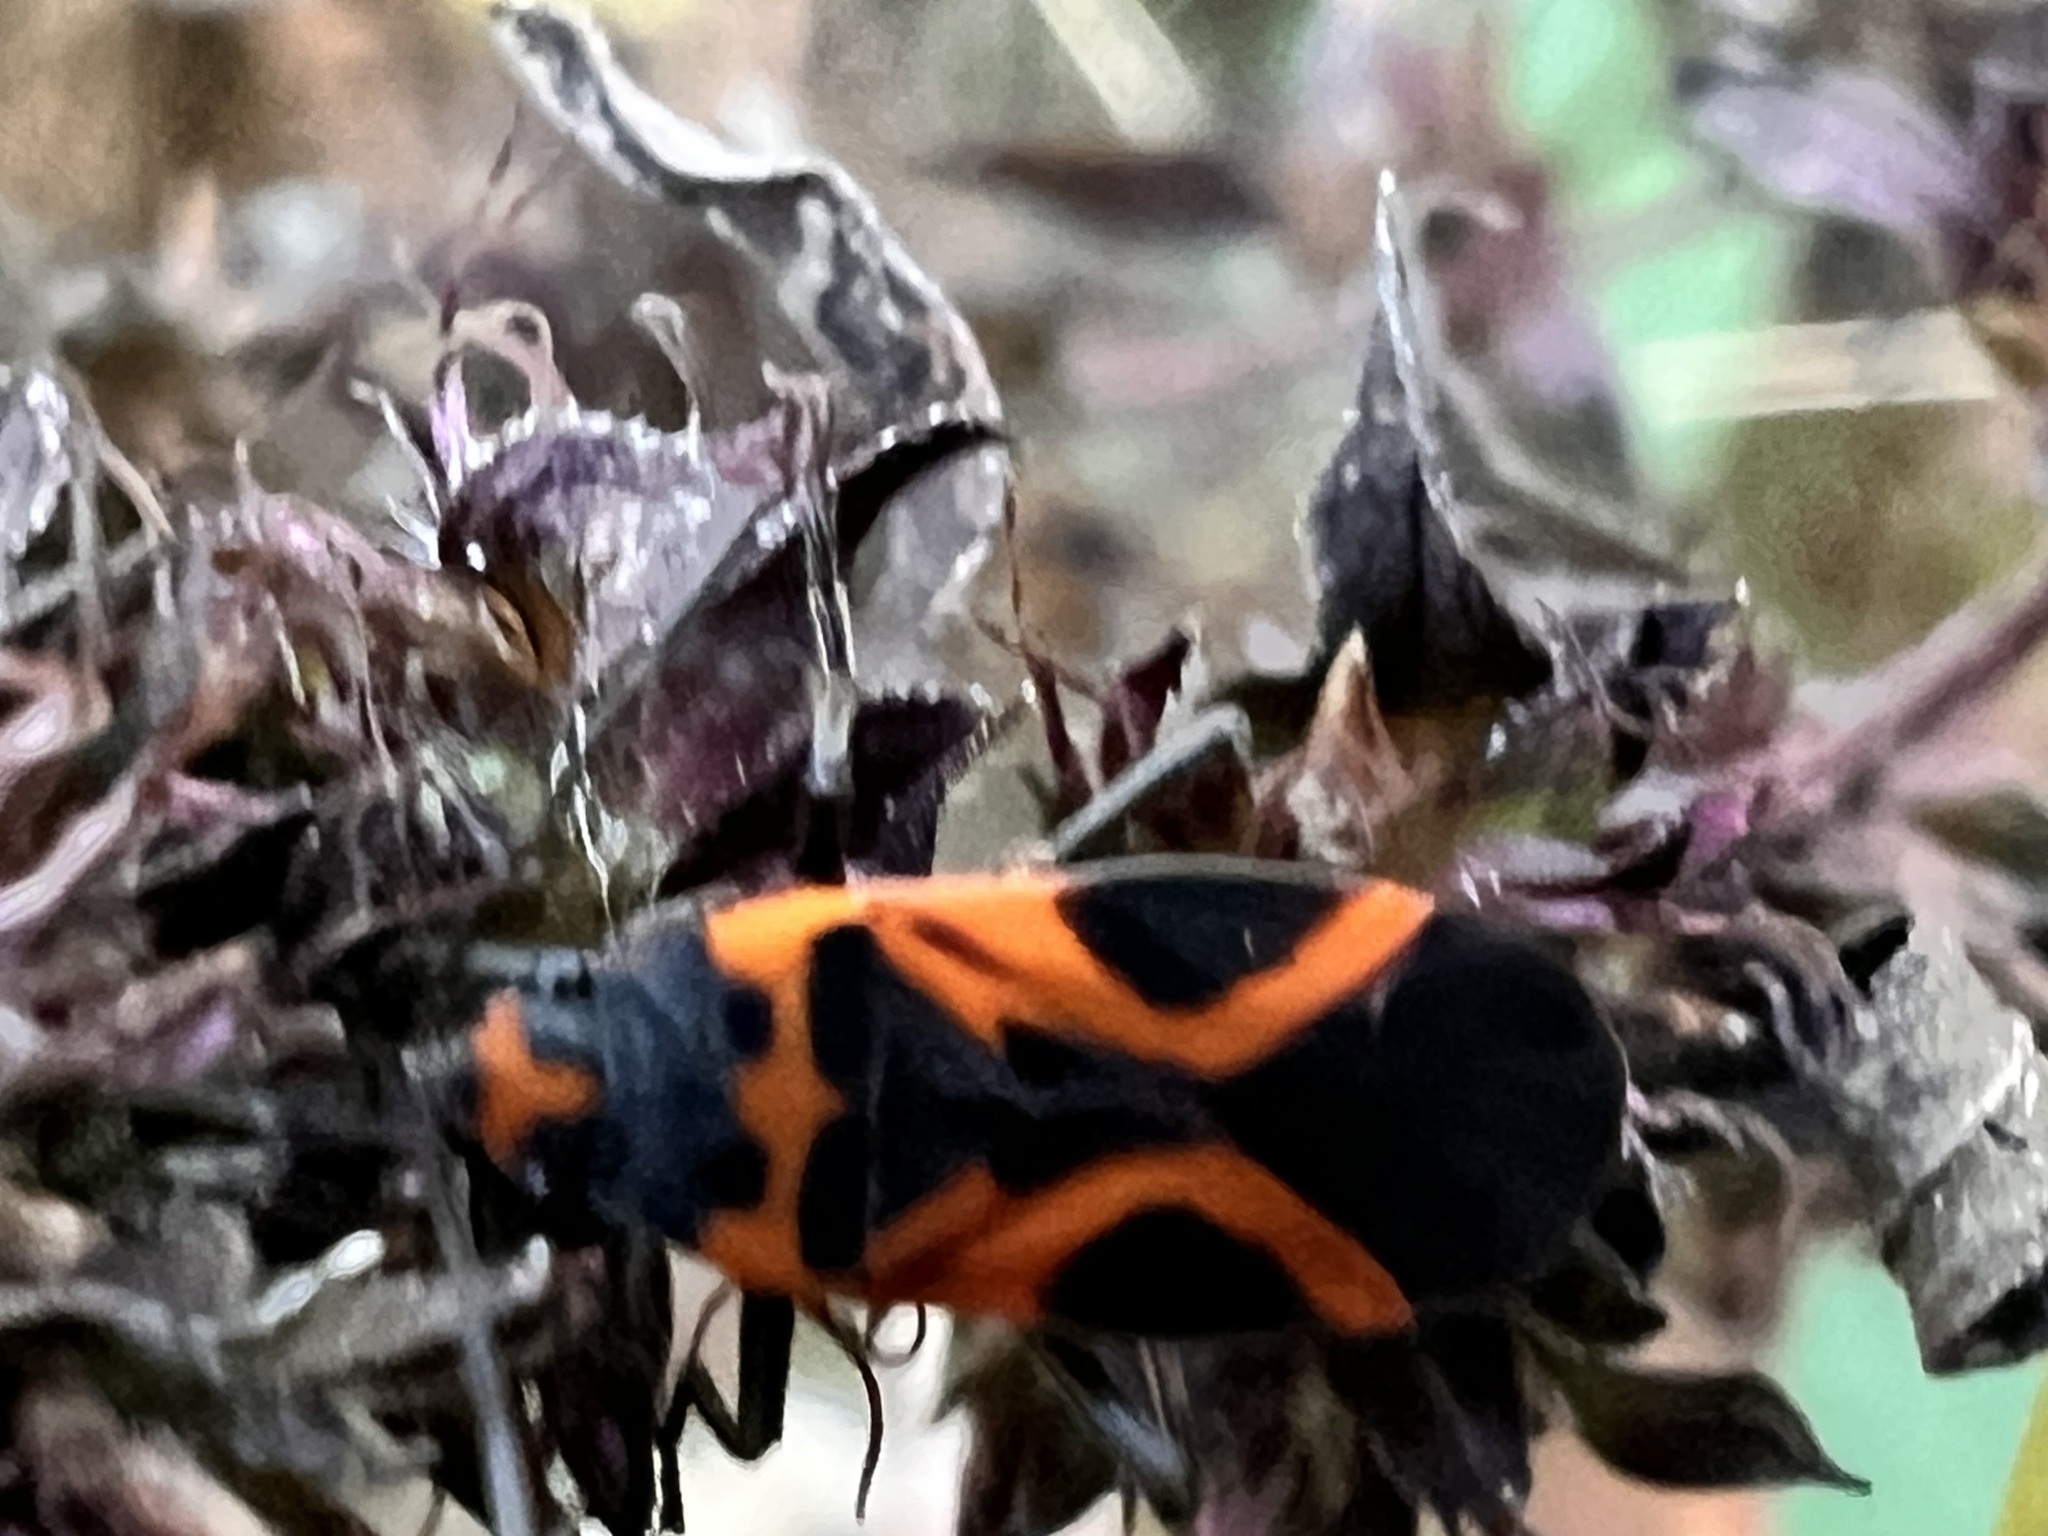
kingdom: Animalia
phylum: Arthropoda
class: Insecta
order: Hemiptera
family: Lygaeidae
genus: Lygaeus
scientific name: Lygaeus turcicus
